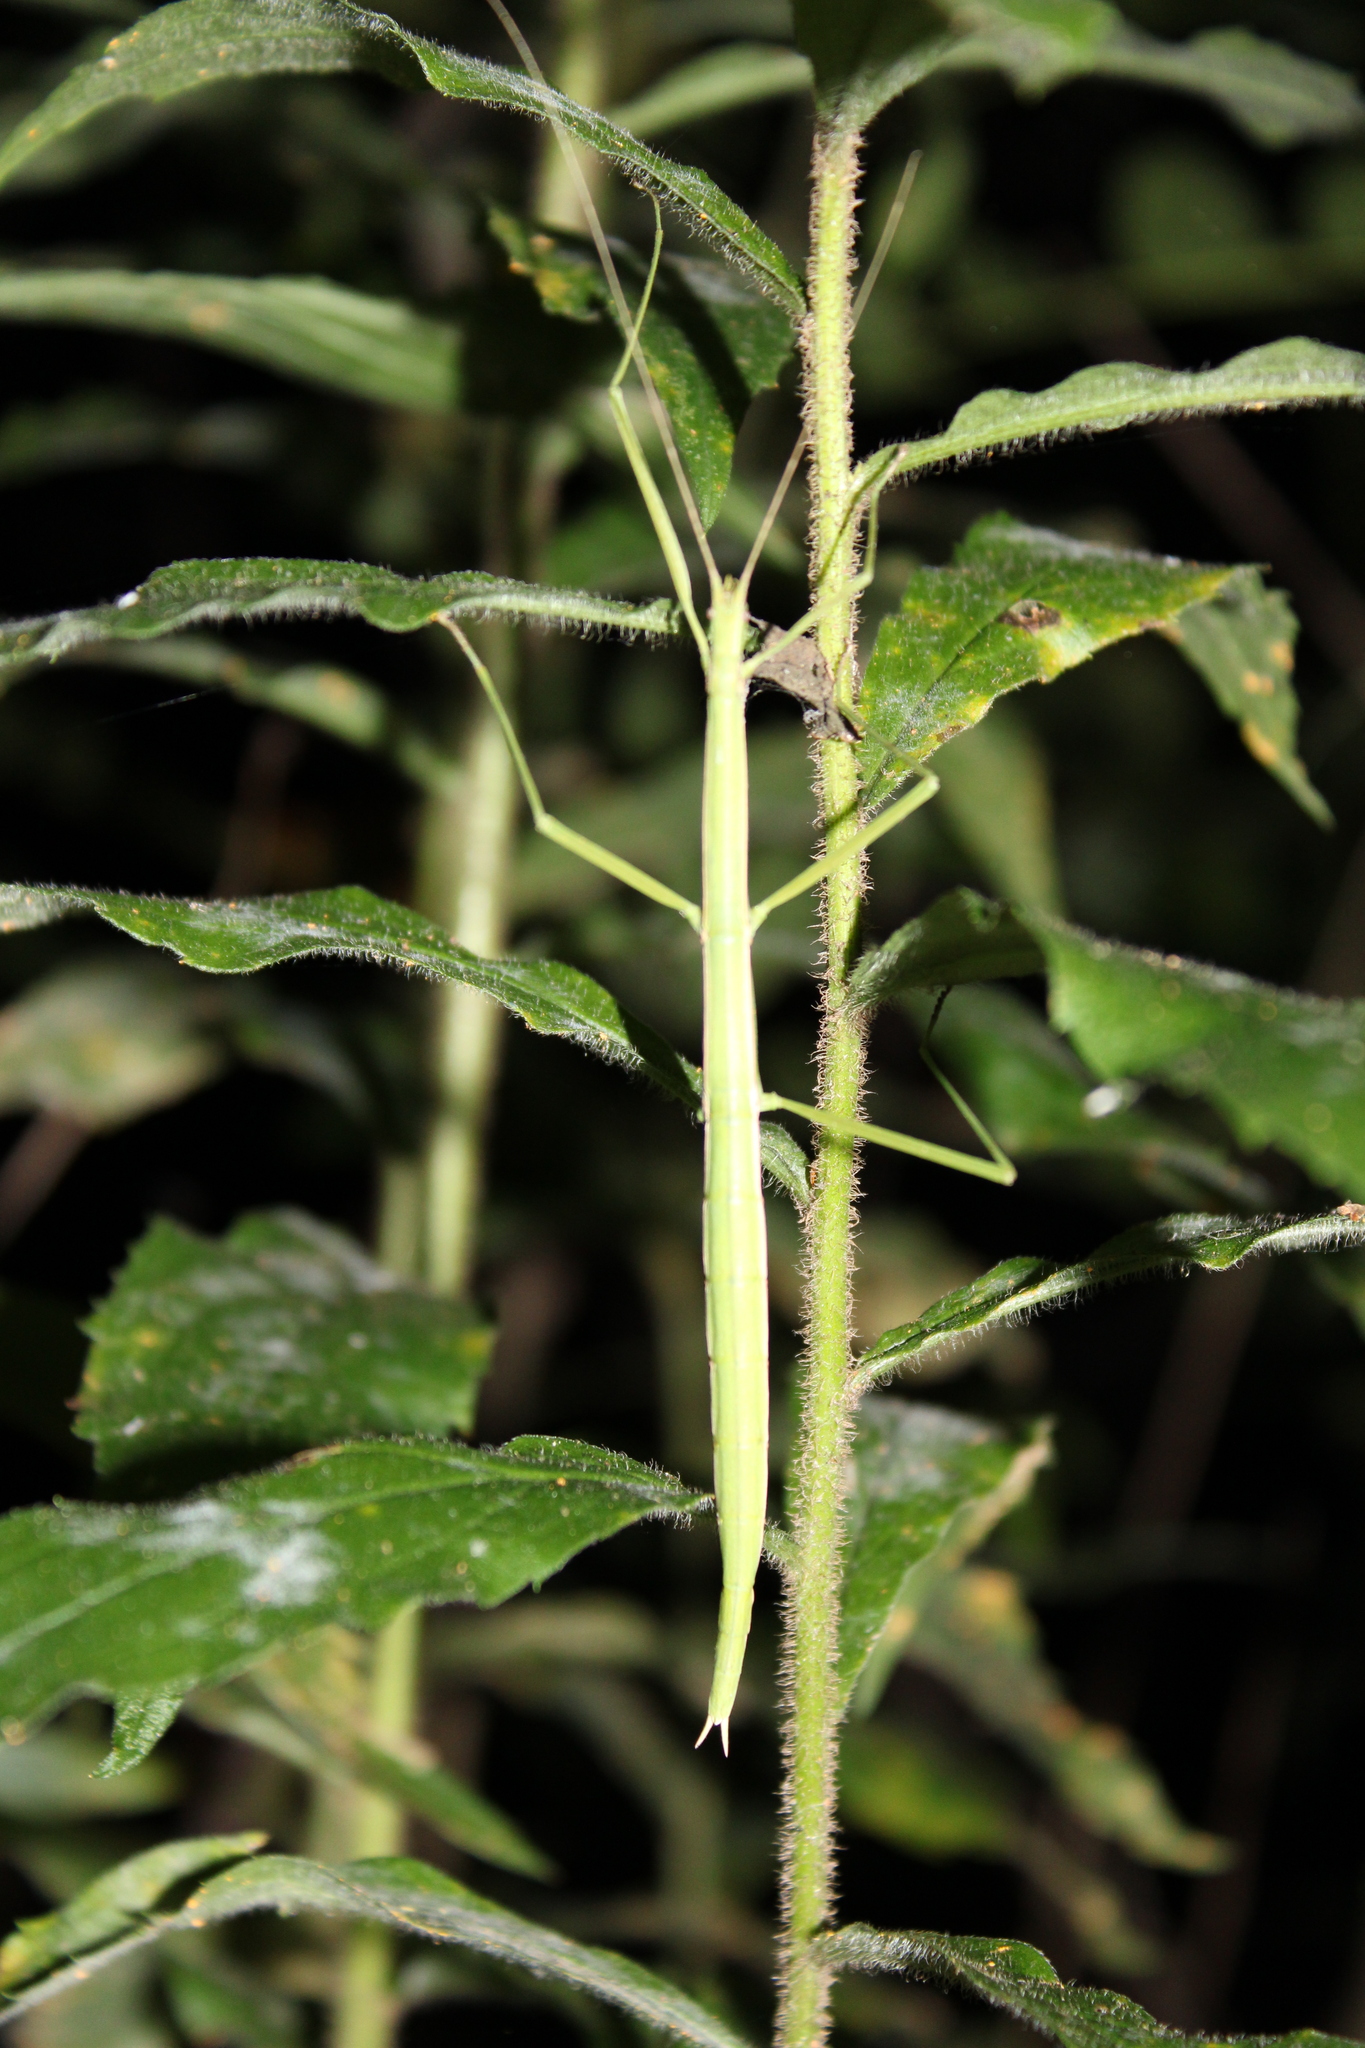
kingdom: Animalia
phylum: Arthropoda
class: Insecta
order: Phasmida
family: Diapheromeridae
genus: Manomera
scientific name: Manomera blatchleyi
